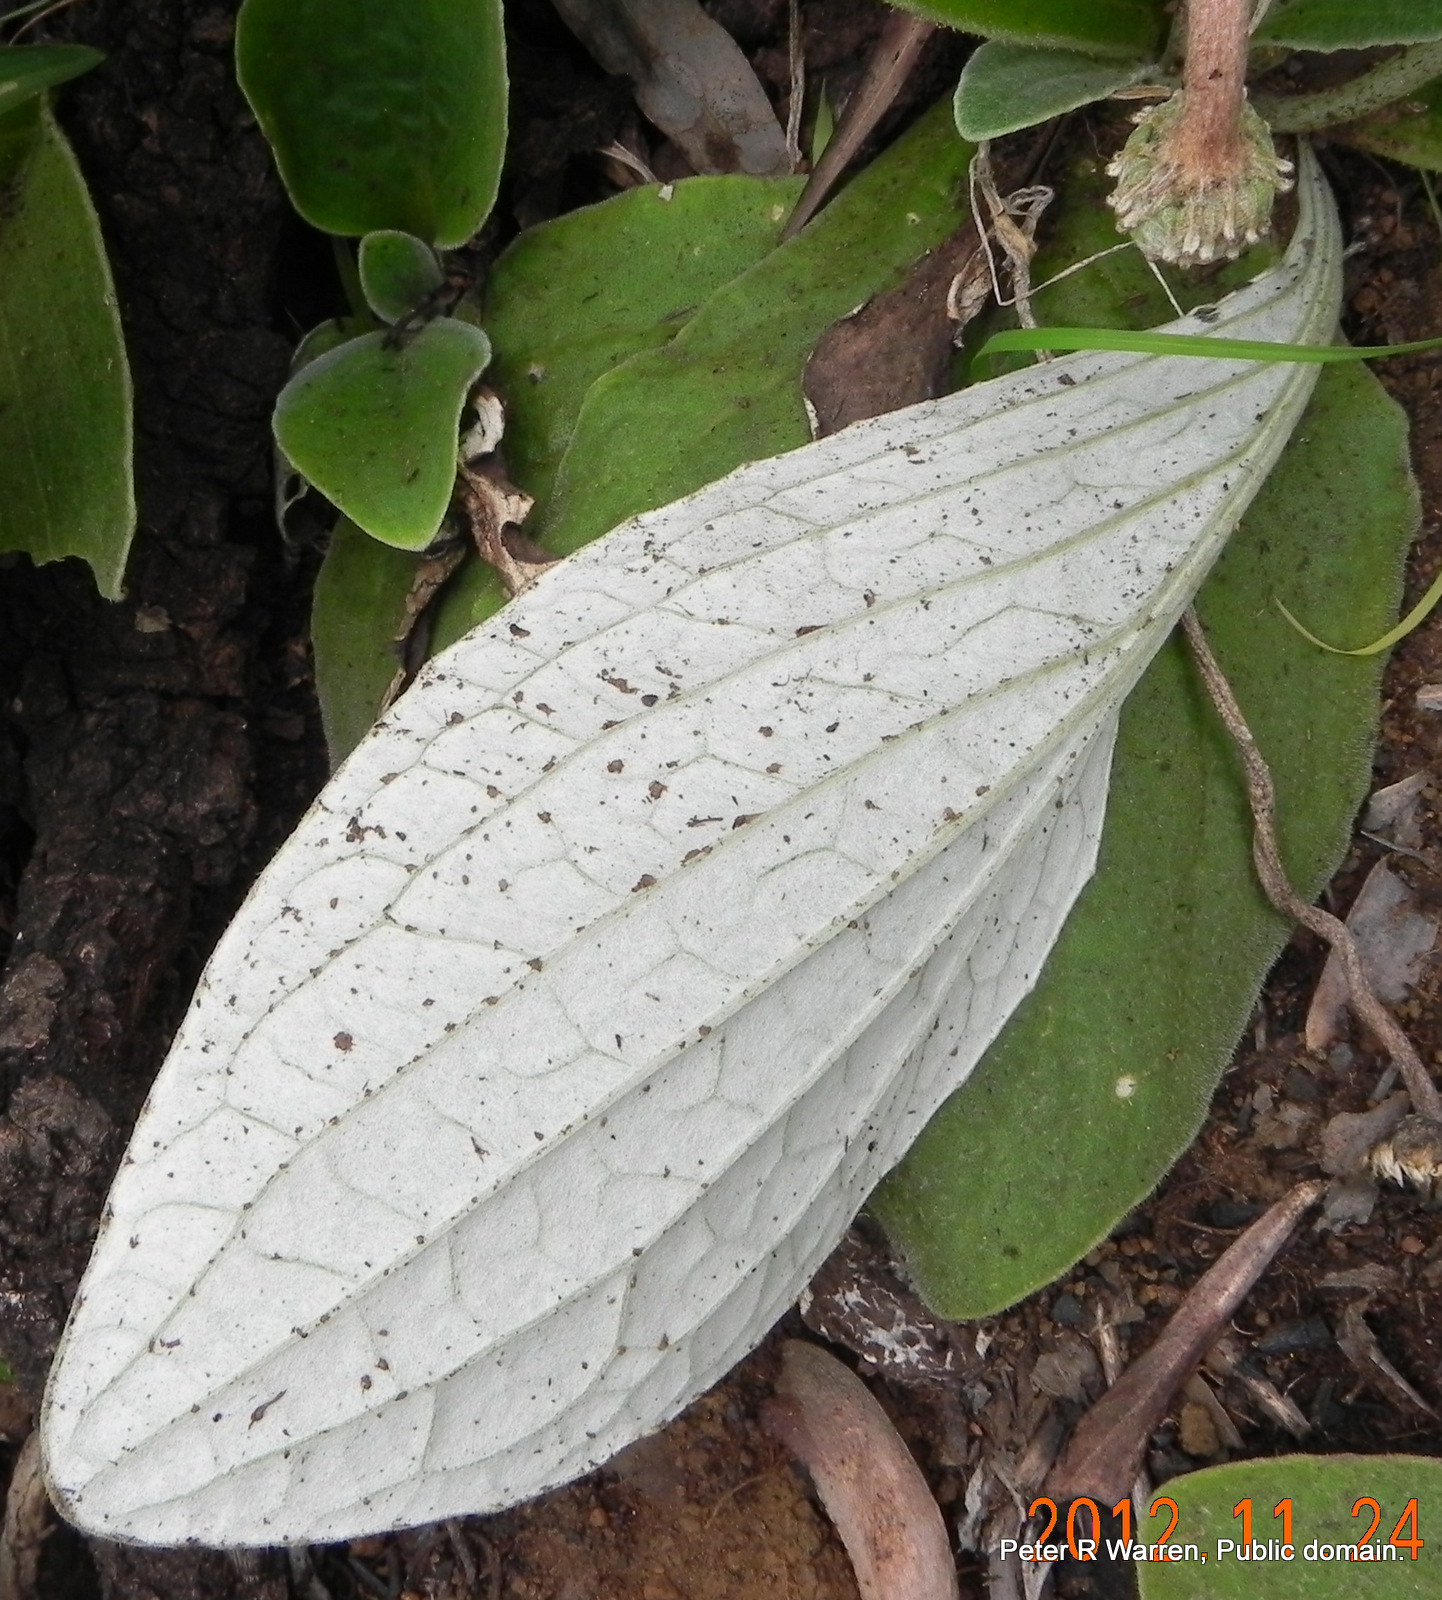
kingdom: Plantae
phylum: Tracheophyta
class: Magnoliopsida
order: Asterales
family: Asteraceae
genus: Haplocarpha
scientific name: Haplocarpha scaposa
